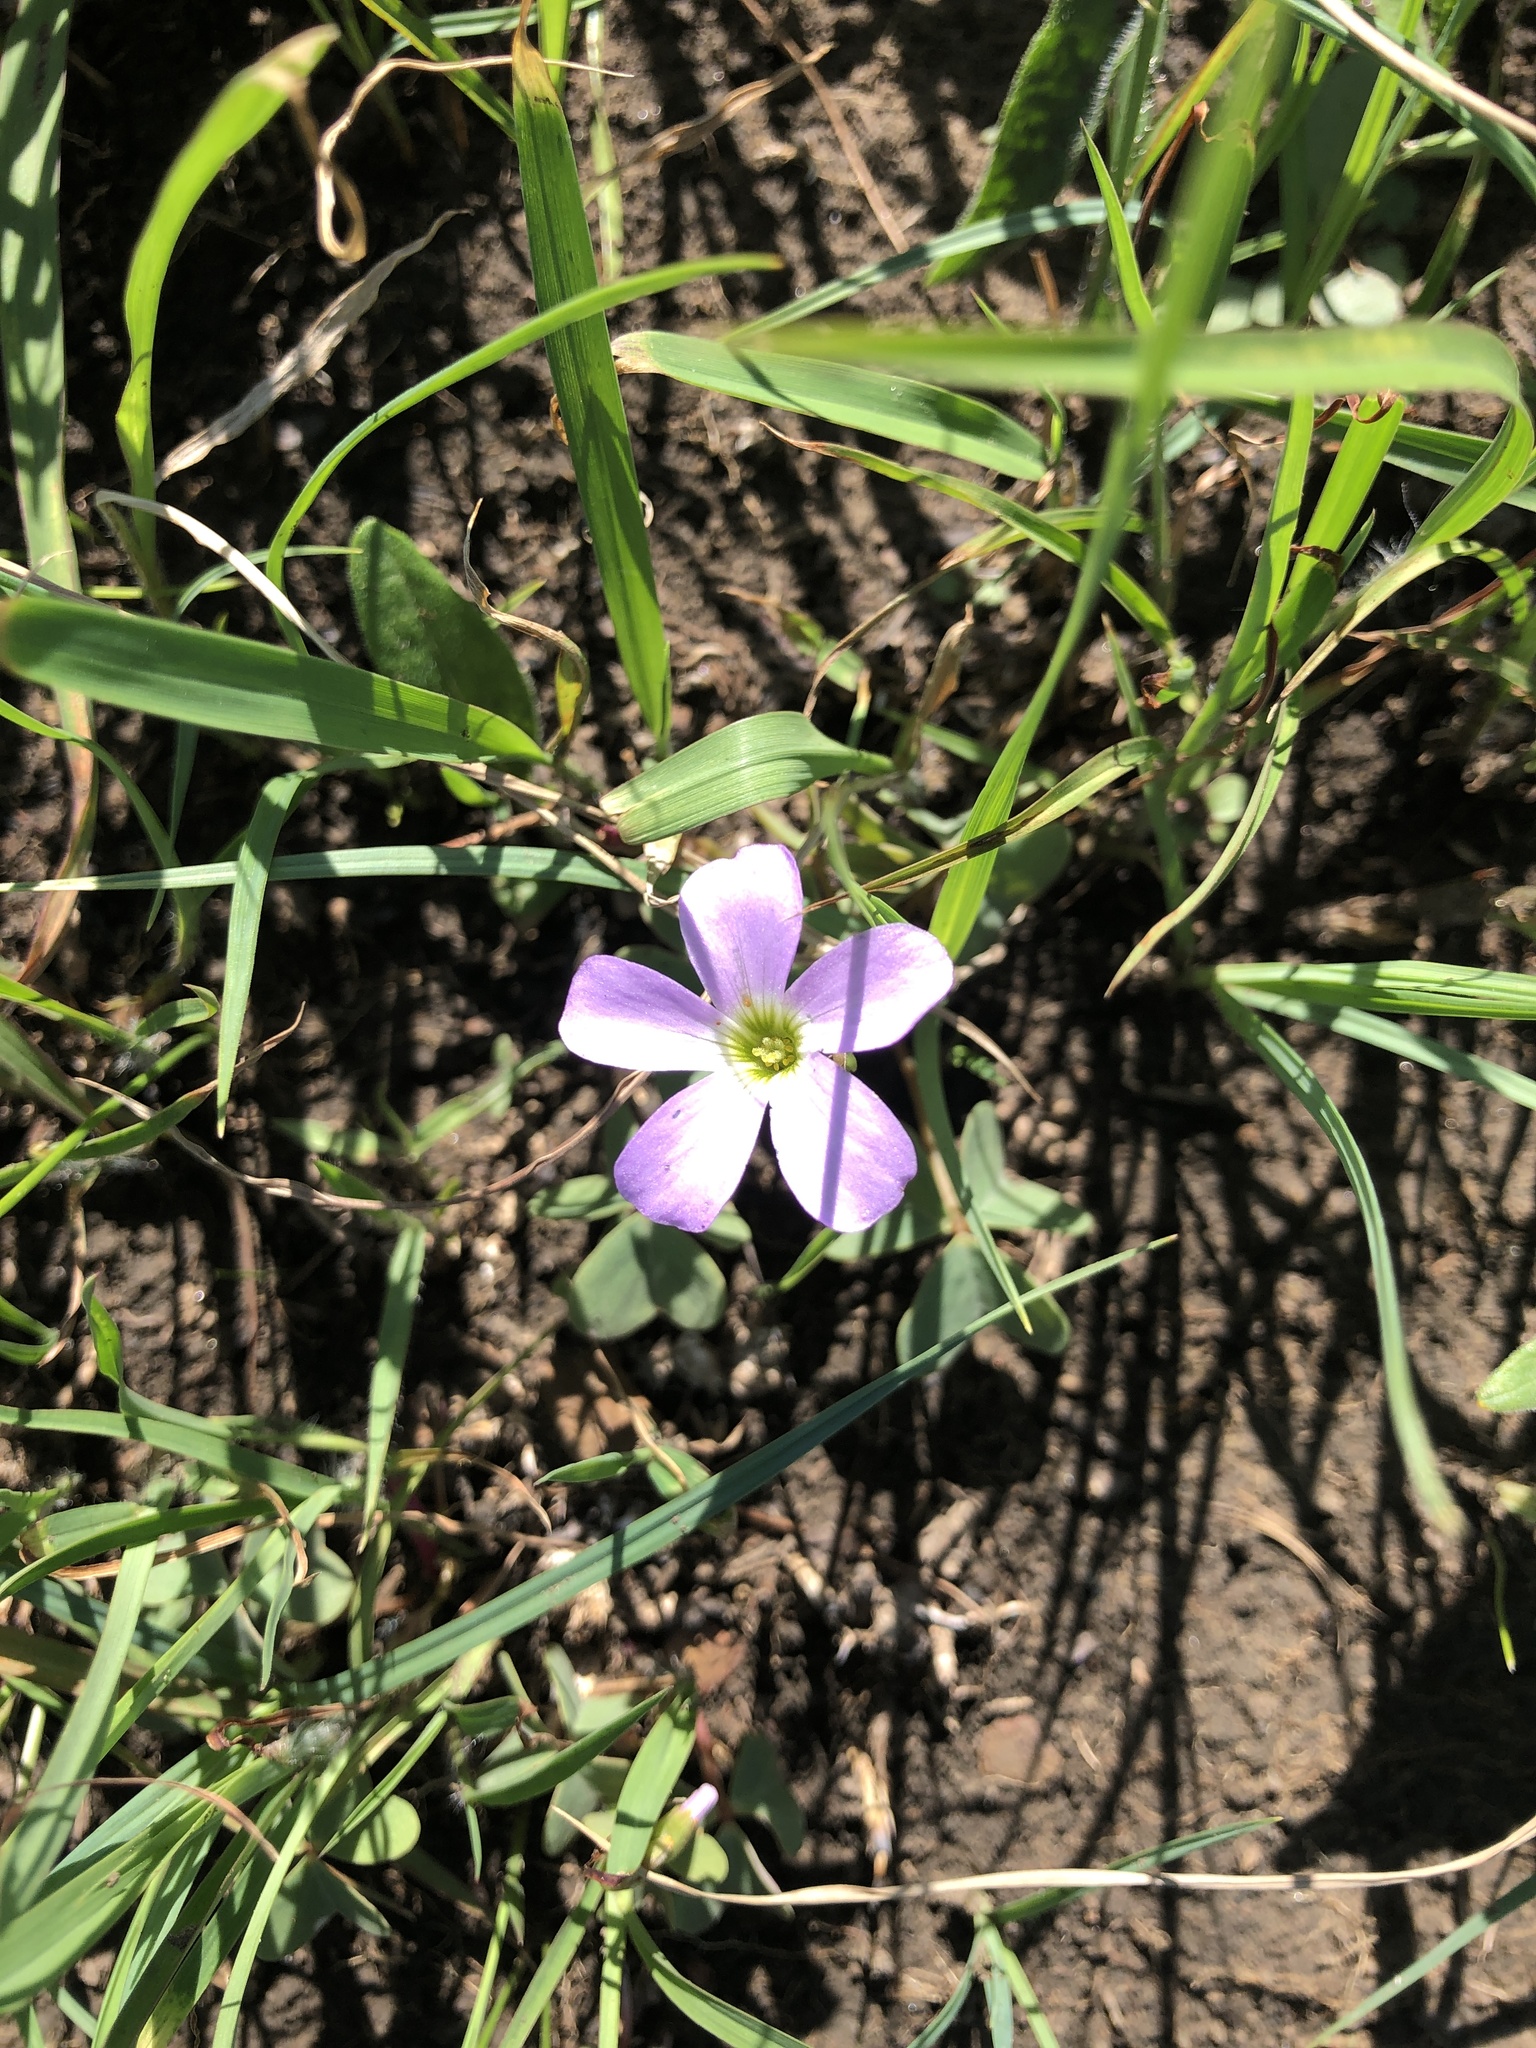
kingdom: Plantae
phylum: Tracheophyta
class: Magnoliopsida
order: Oxalidales
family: Oxalidaceae
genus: Oxalis
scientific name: Oxalis violacea
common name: Violet wood-sorrel
